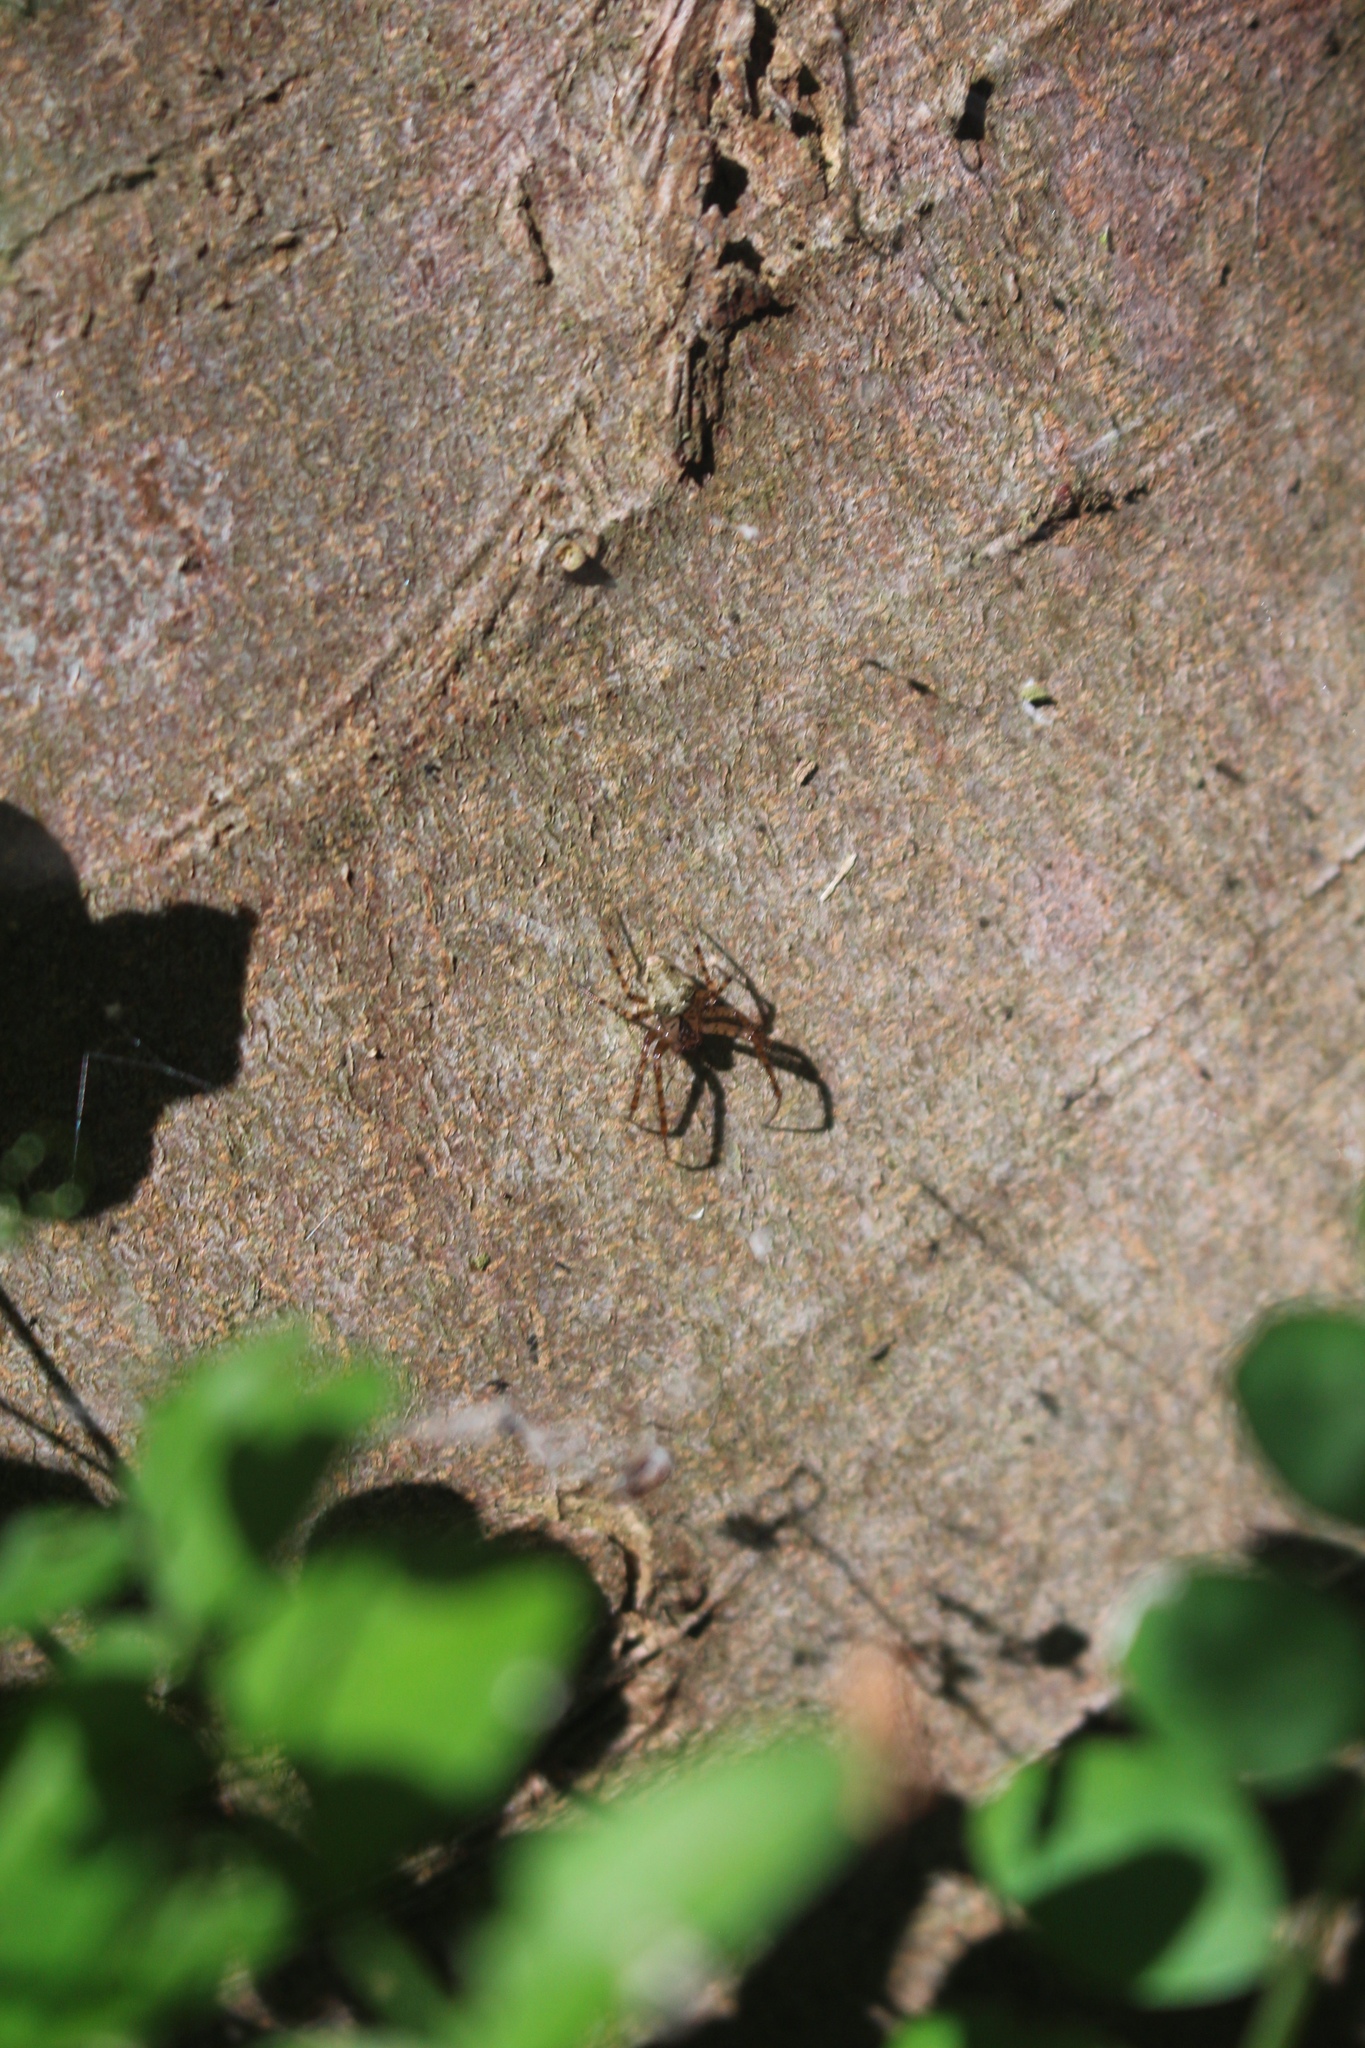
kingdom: Animalia
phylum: Arthropoda
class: Arachnida
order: Araneae
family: Tetragnathidae
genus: Metellina
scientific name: Metellina merianae
